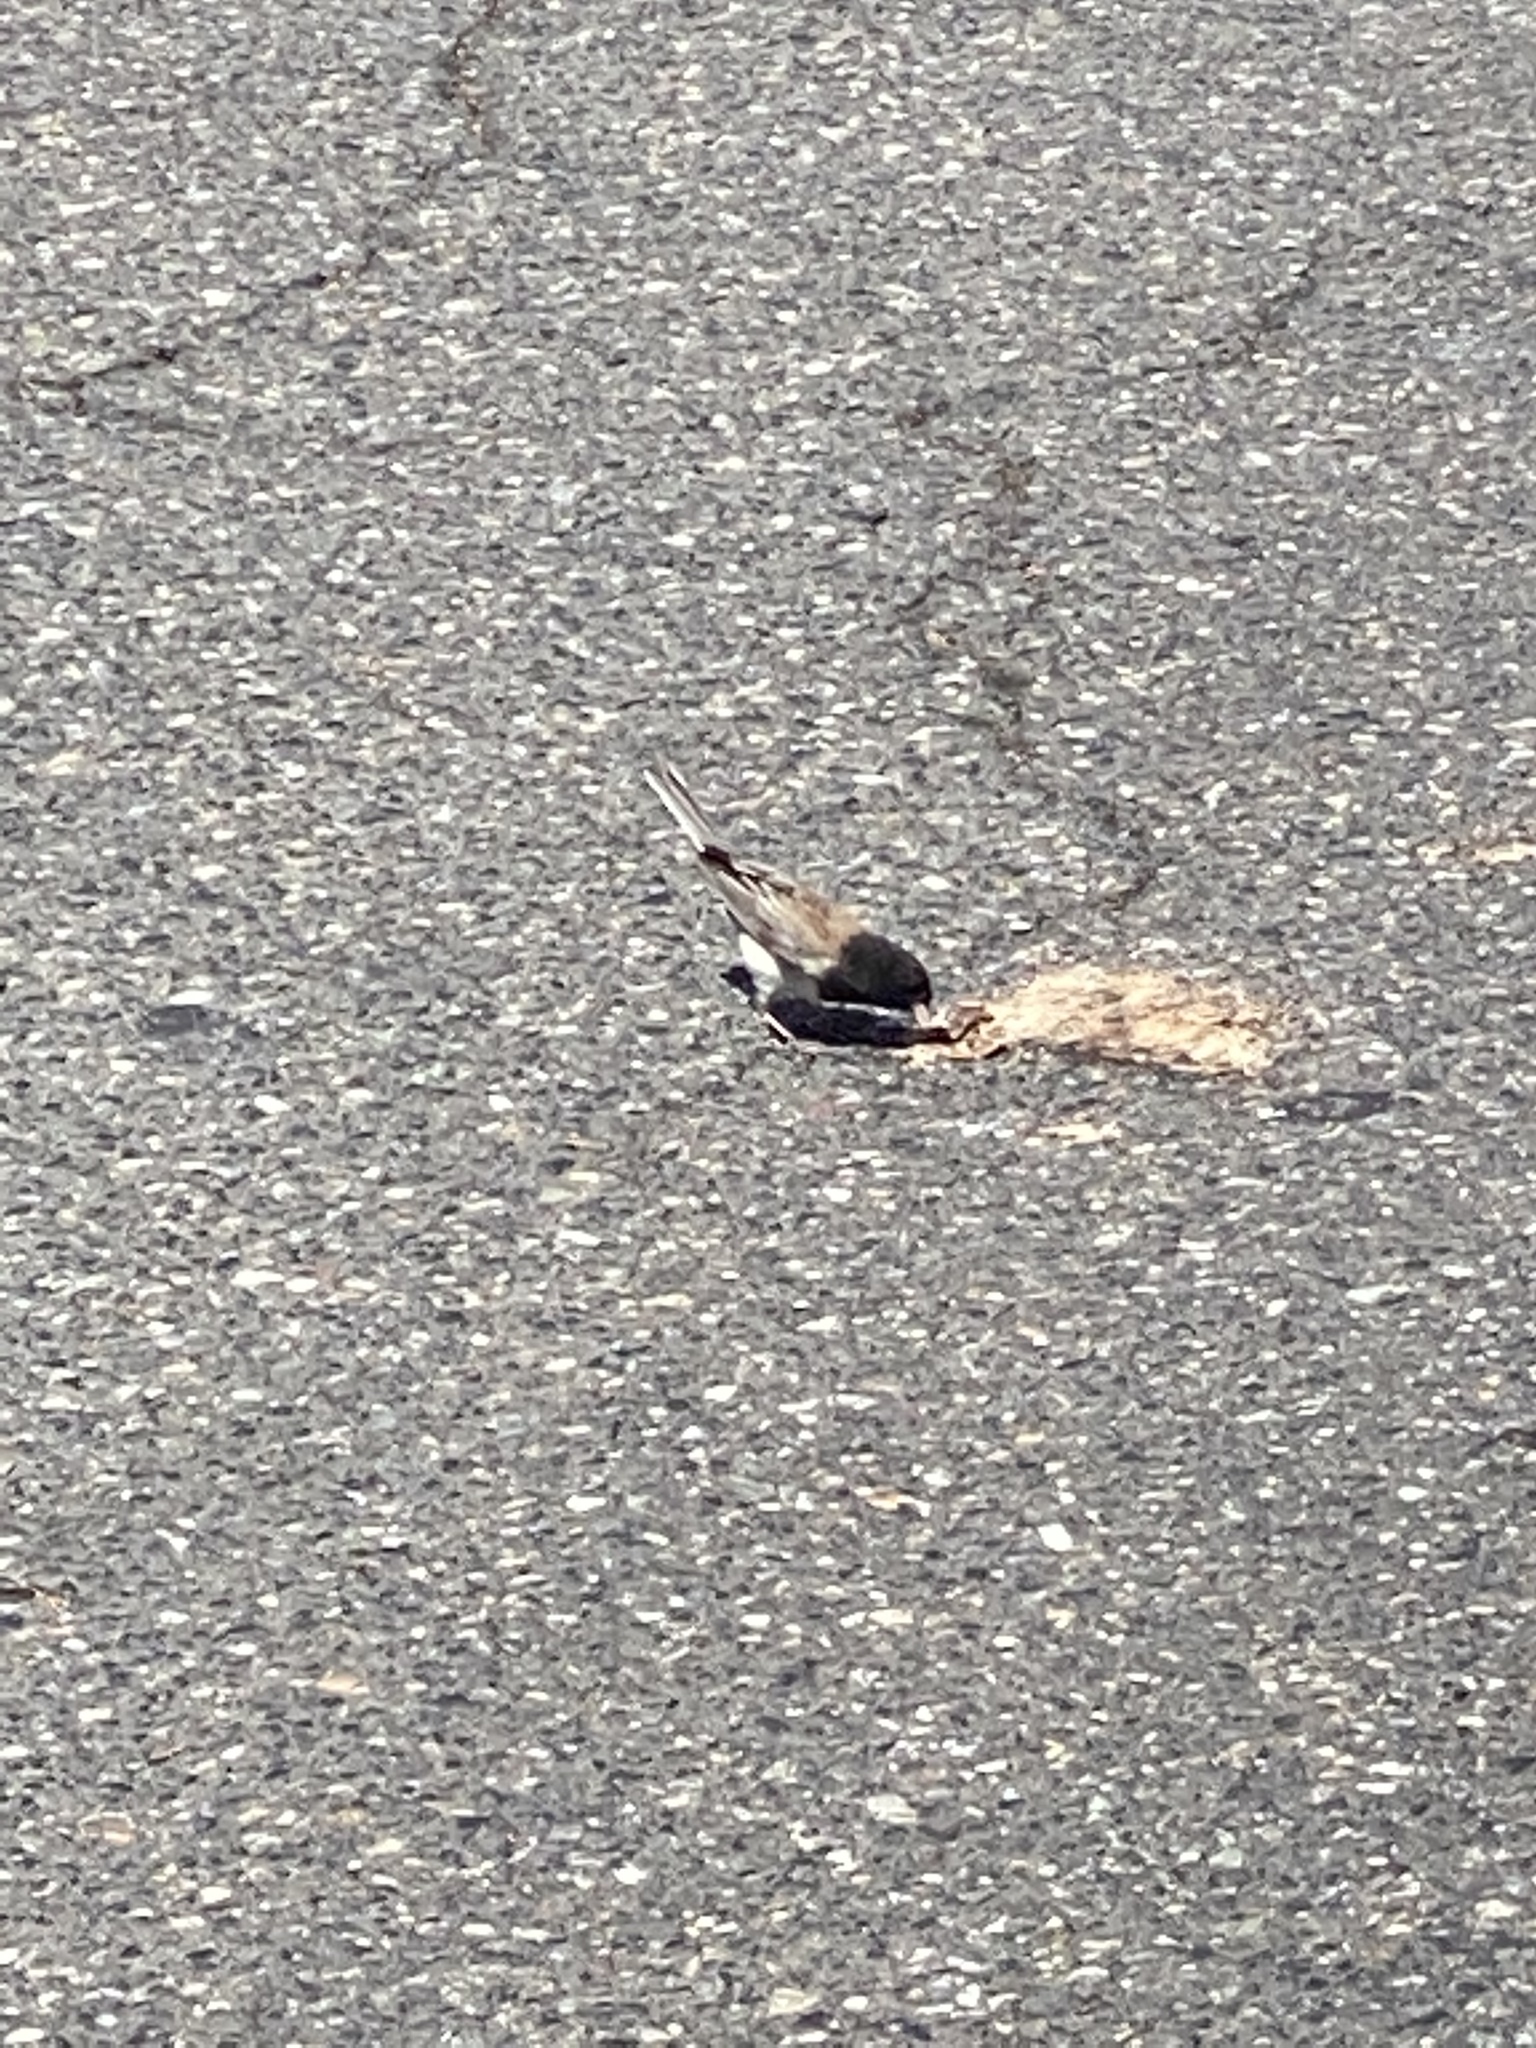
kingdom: Animalia
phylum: Chordata
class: Aves
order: Passeriformes
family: Passerellidae
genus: Junco
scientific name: Junco hyemalis
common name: Dark-eyed junco
